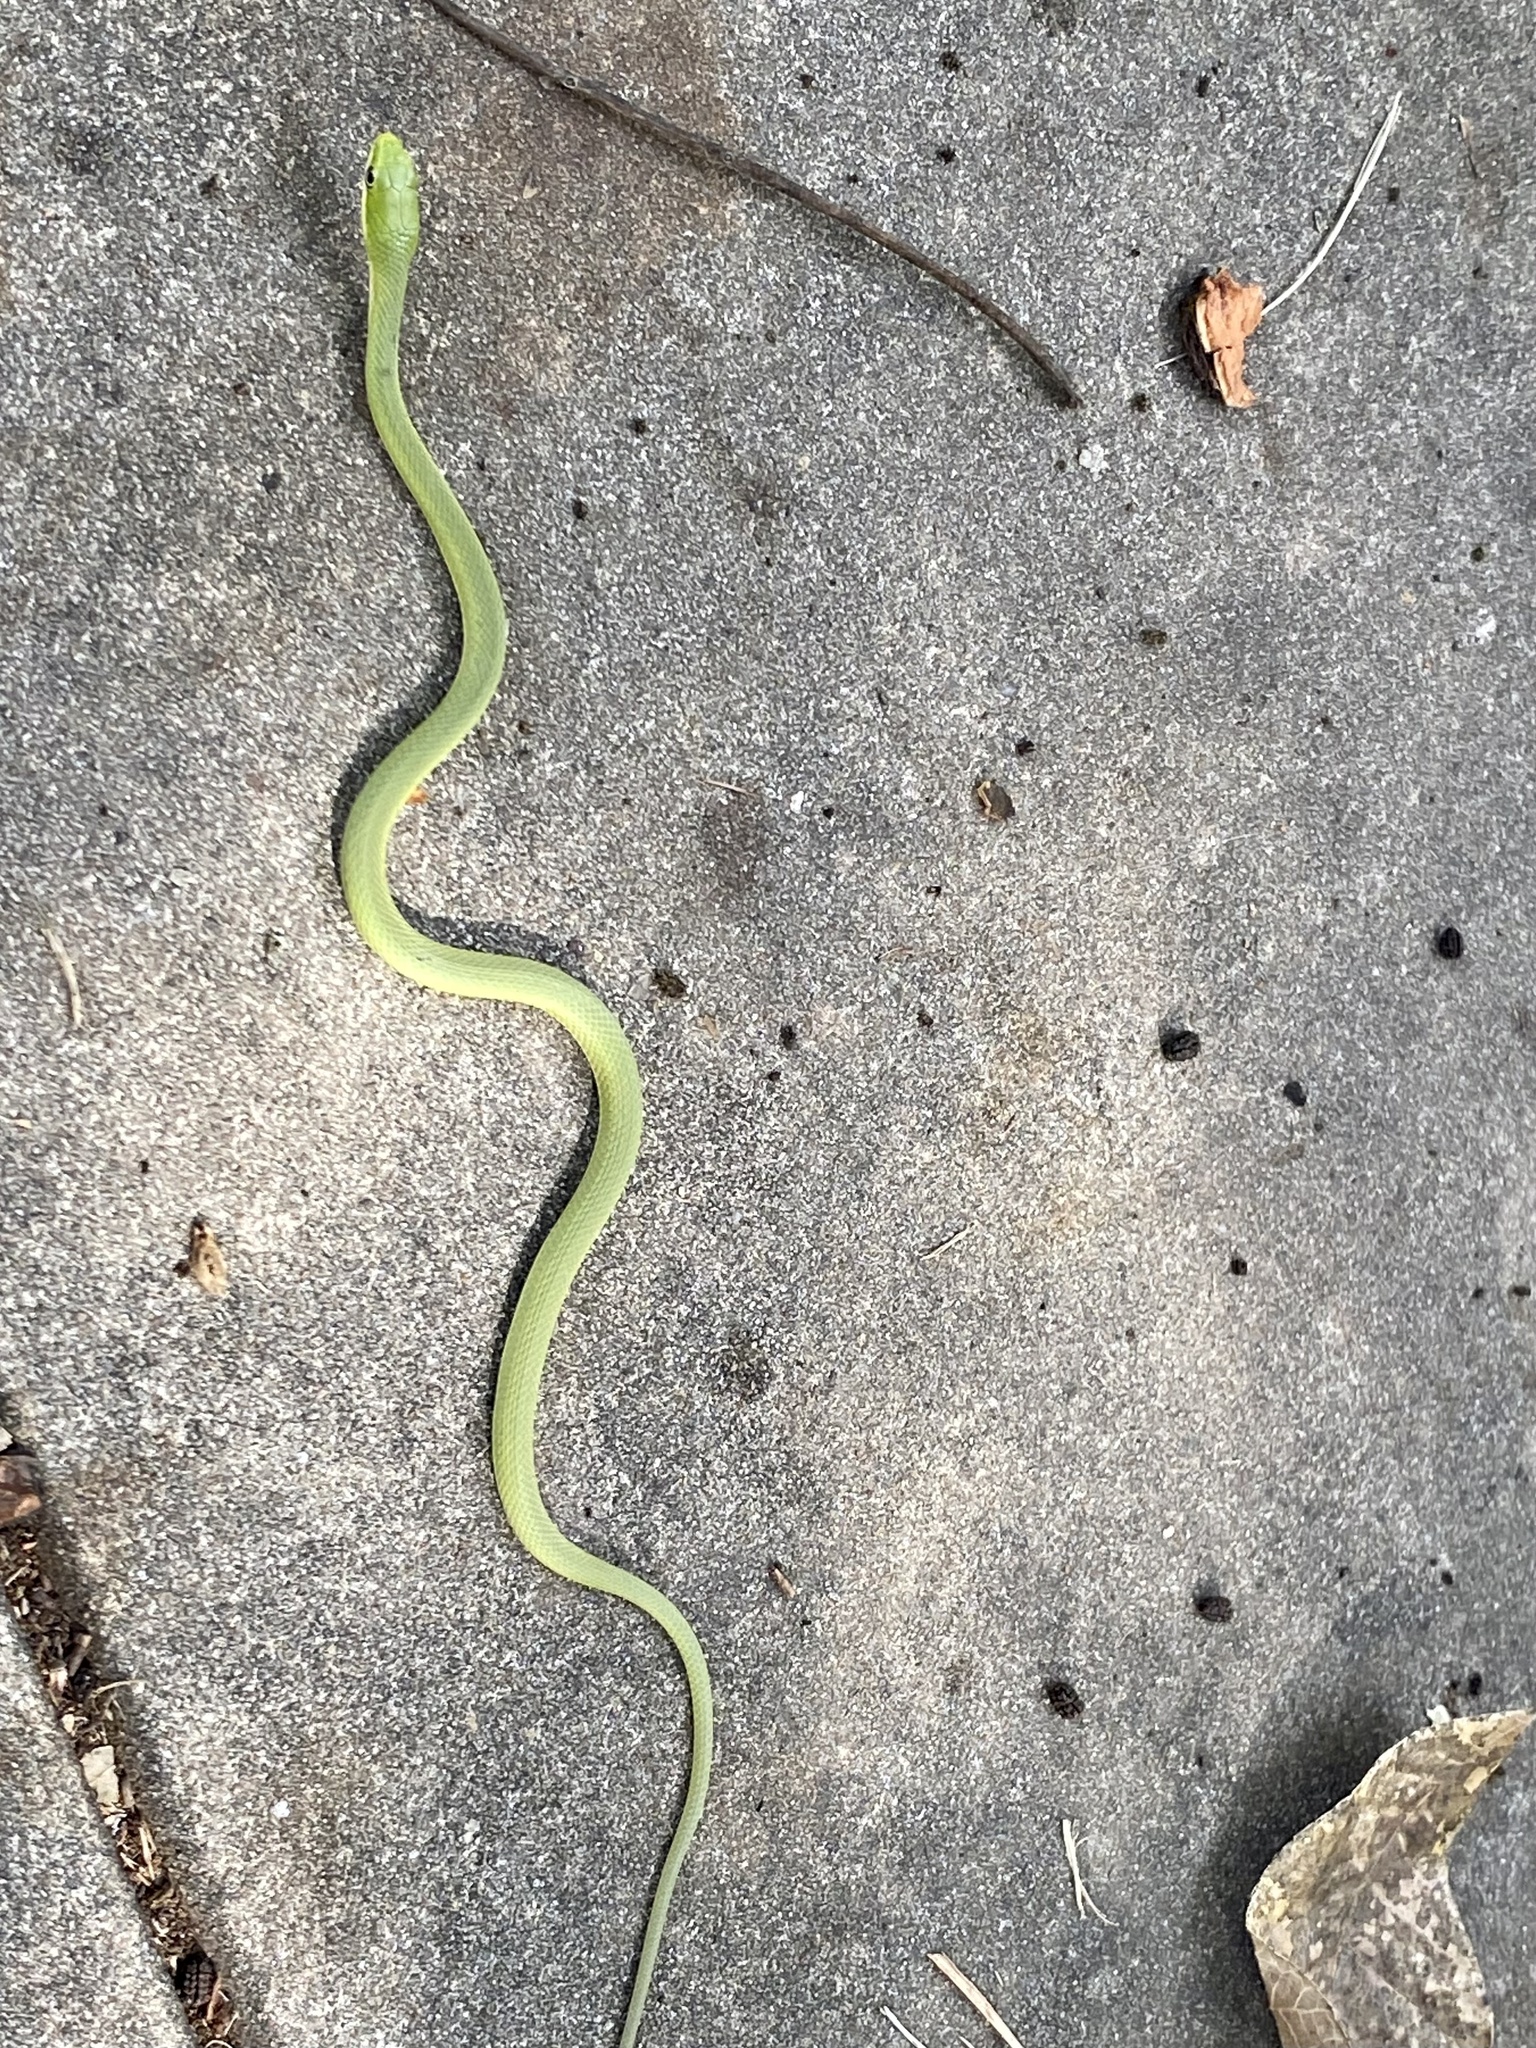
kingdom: Animalia
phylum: Chordata
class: Squamata
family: Colubridae
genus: Opheodrys
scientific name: Opheodrys aestivus
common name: Rough greensnake
